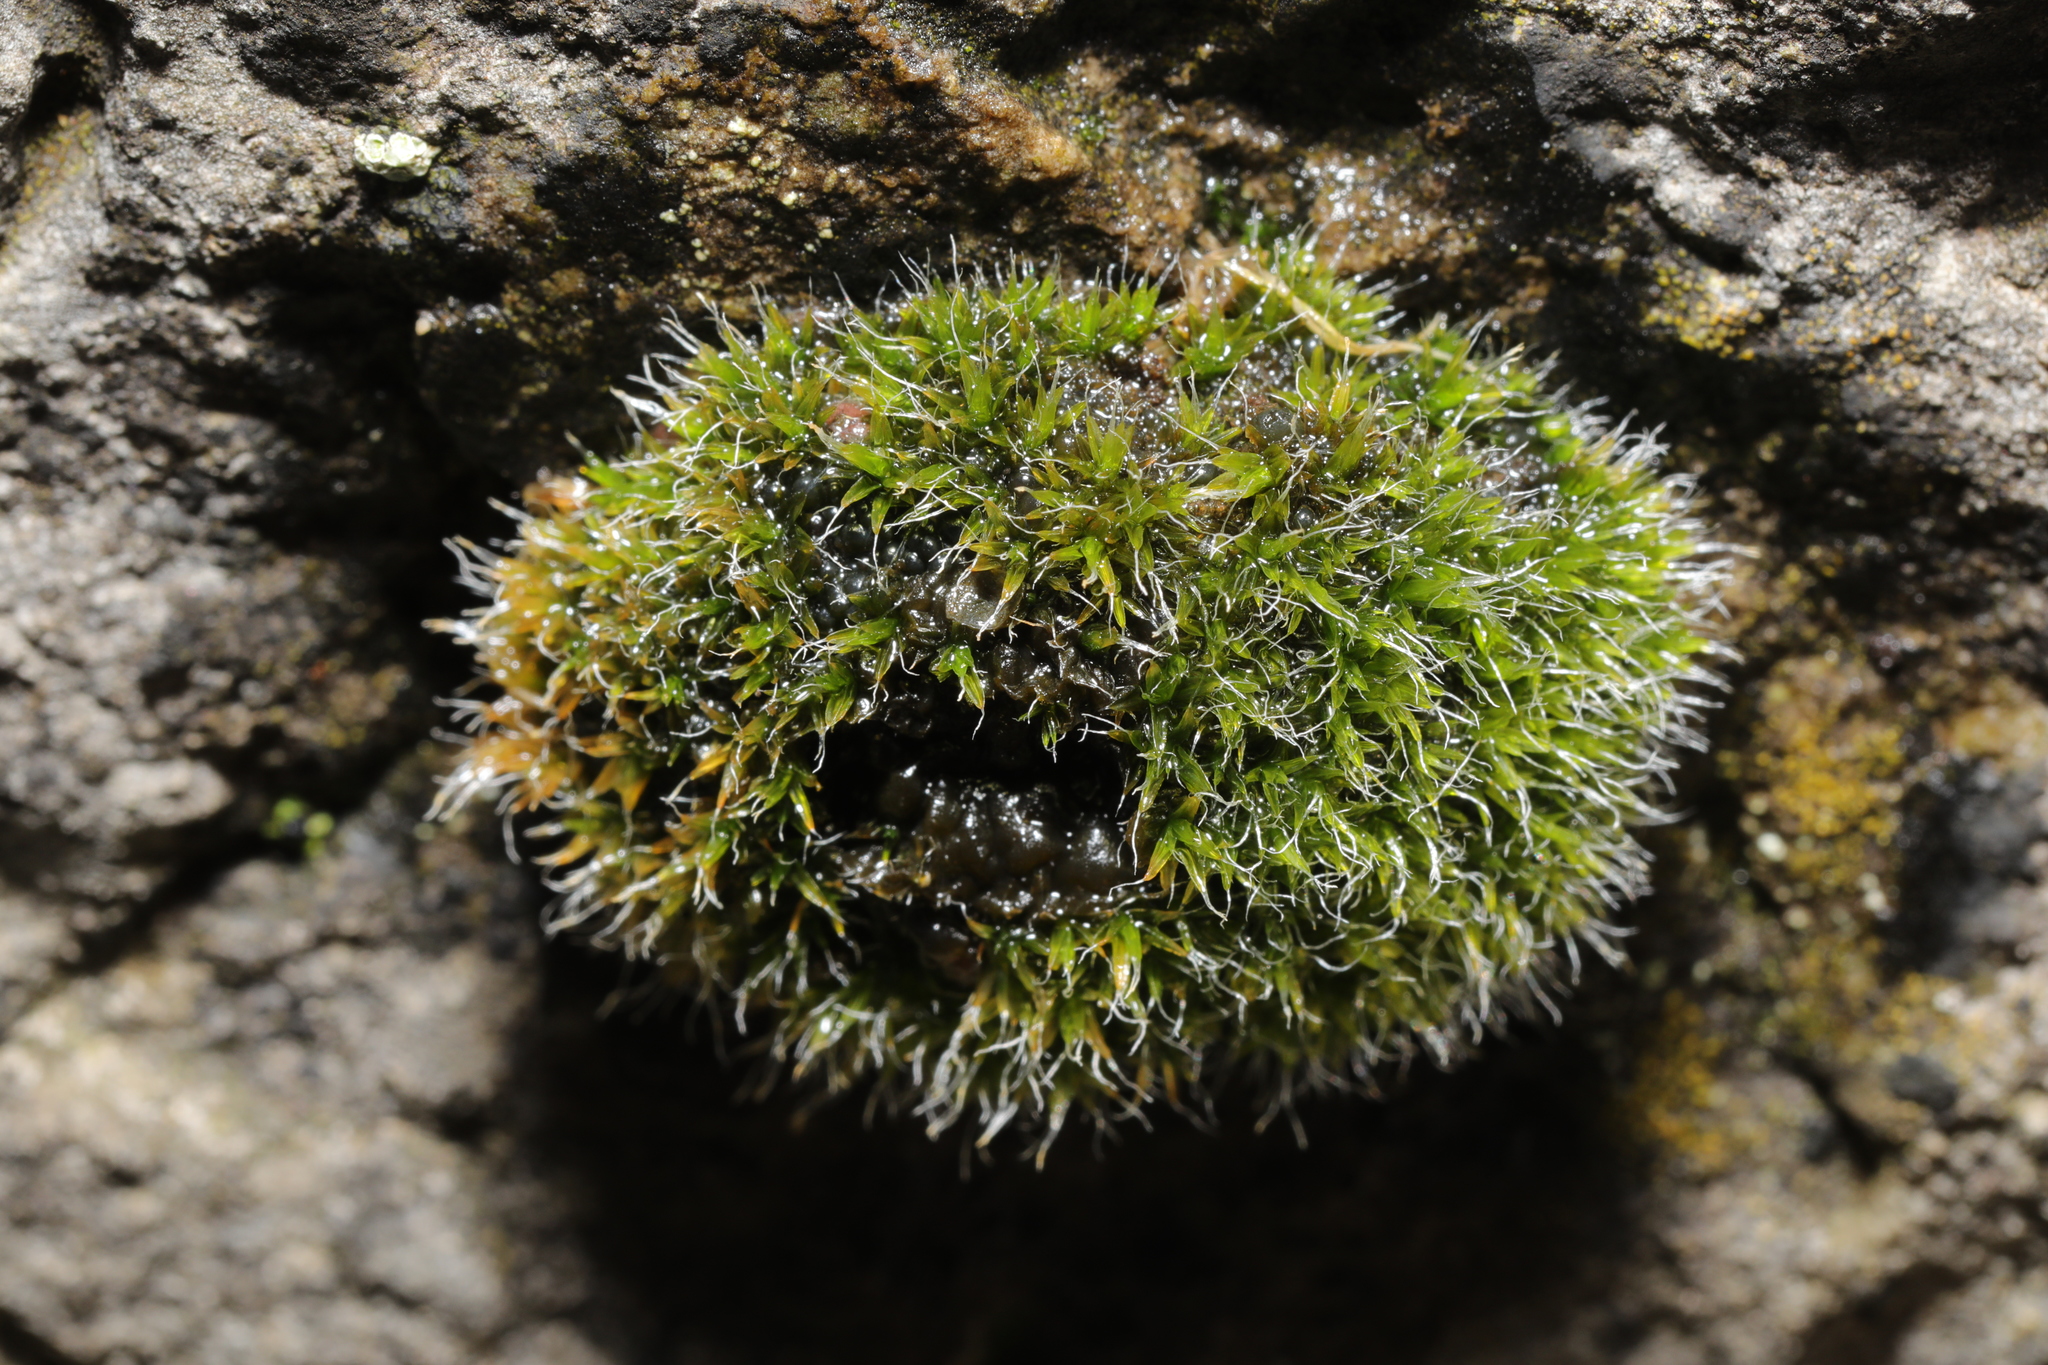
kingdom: Plantae
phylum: Bryophyta
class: Bryopsida
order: Grimmiales
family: Grimmiaceae
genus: Grimmia
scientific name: Grimmia pulvinata
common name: Grey-cushioned grimmia
